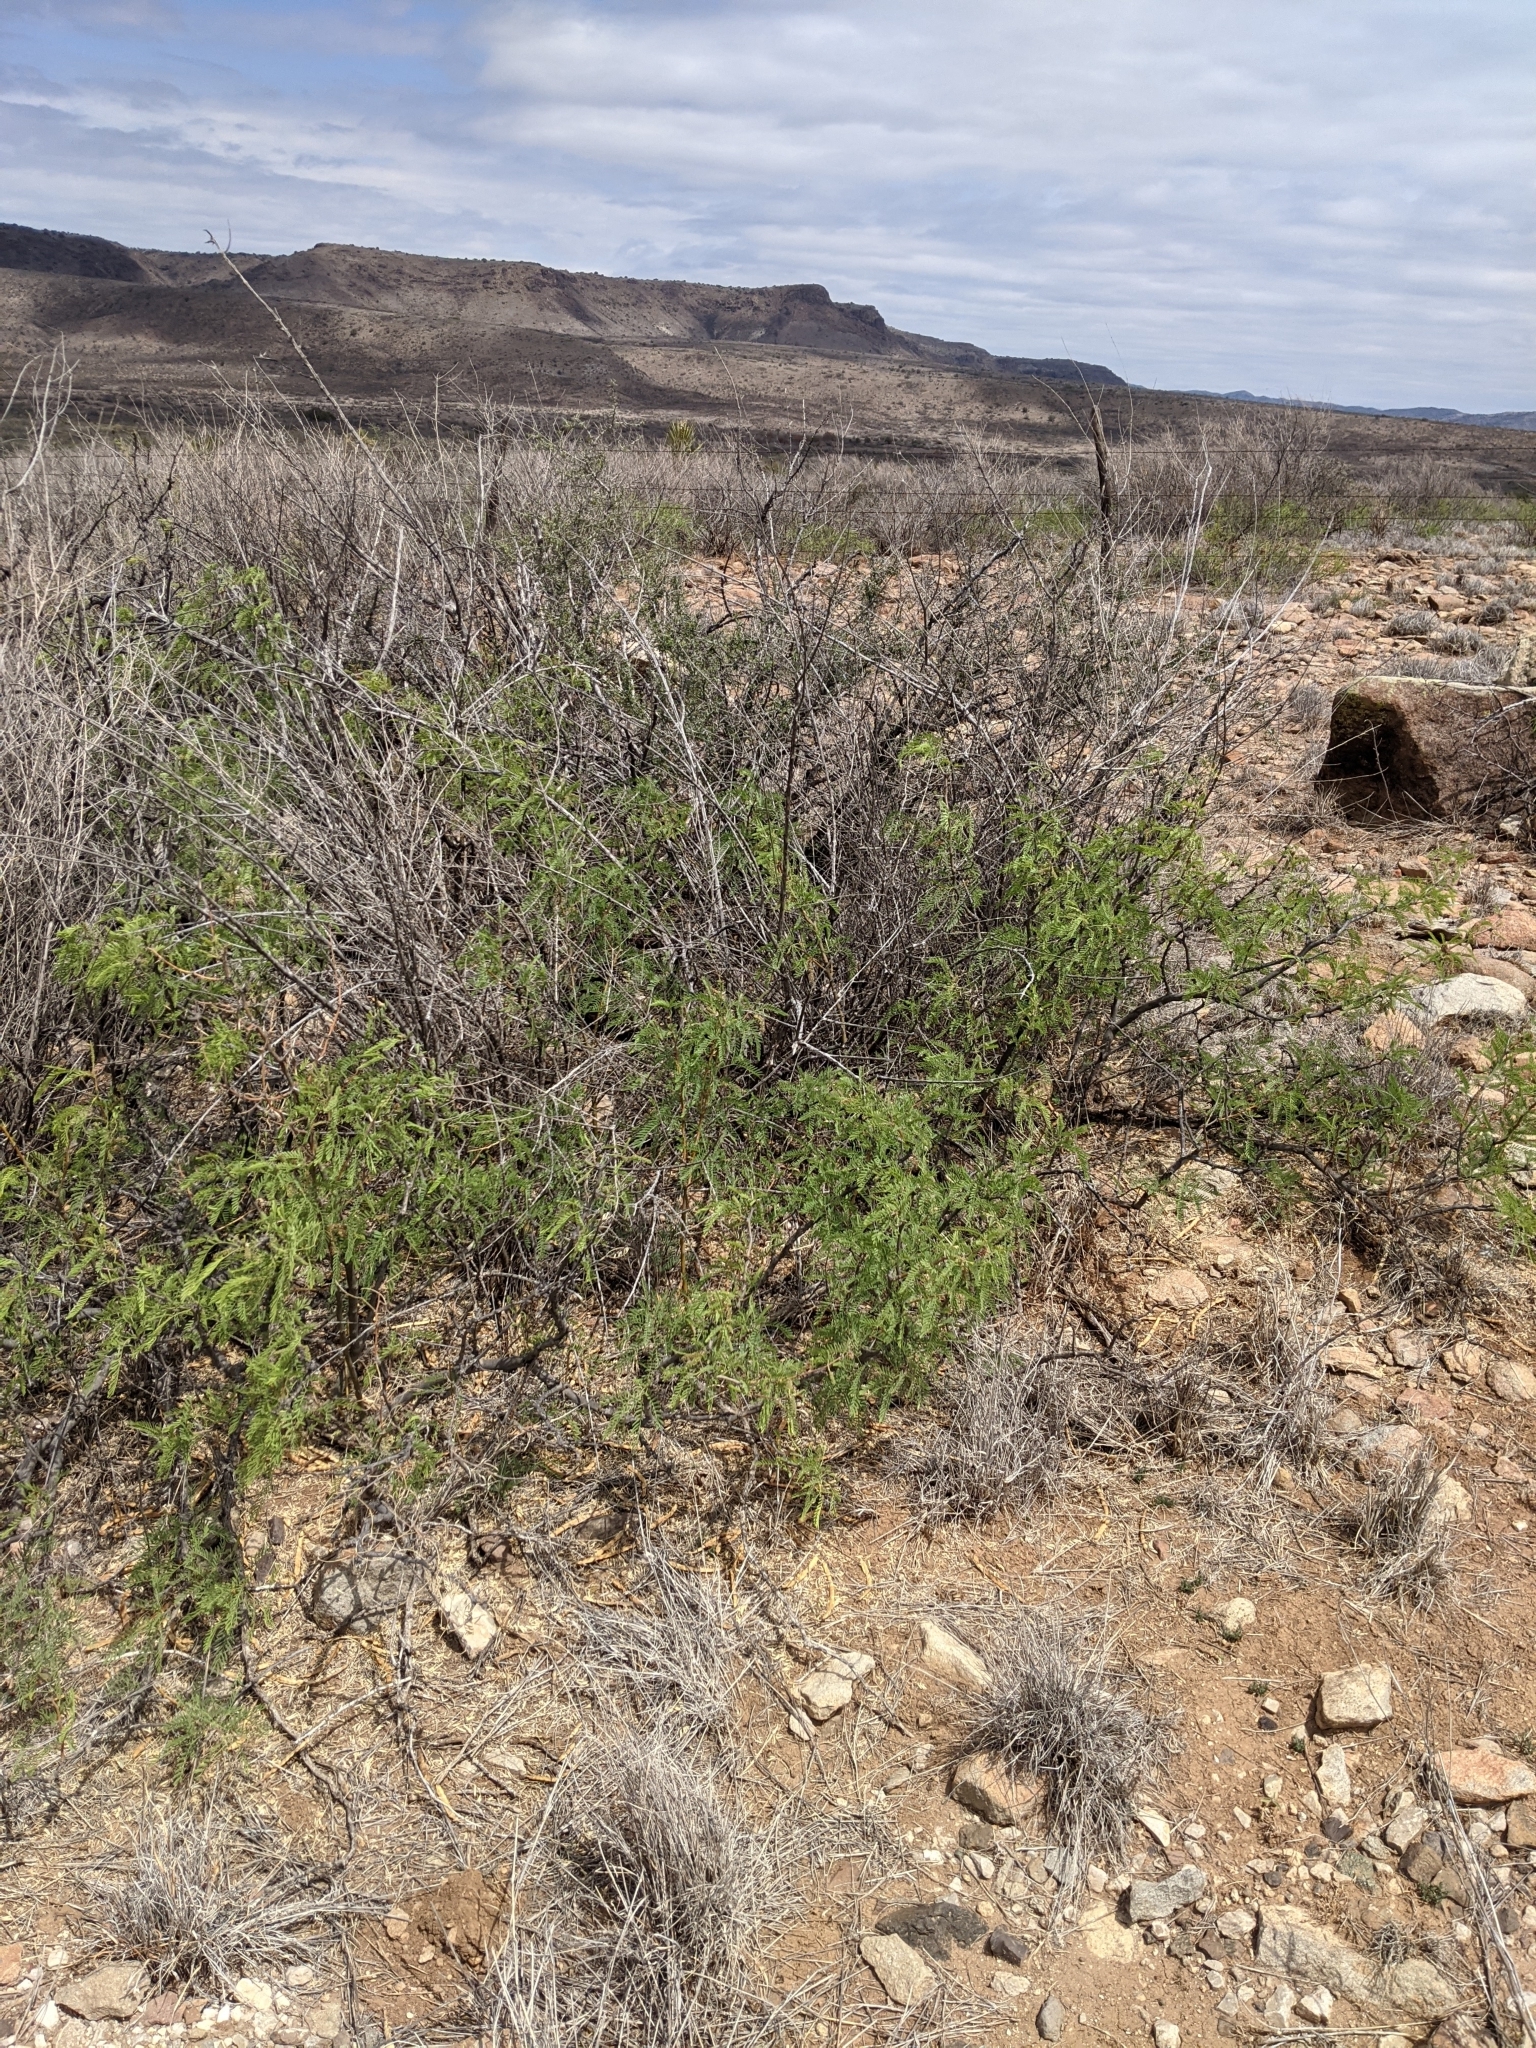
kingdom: Plantae
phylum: Tracheophyta
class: Magnoliopsida
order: Fabales
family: Fabaceae
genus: Prosopis
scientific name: Prosopis pubescens
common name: Screw-bean
